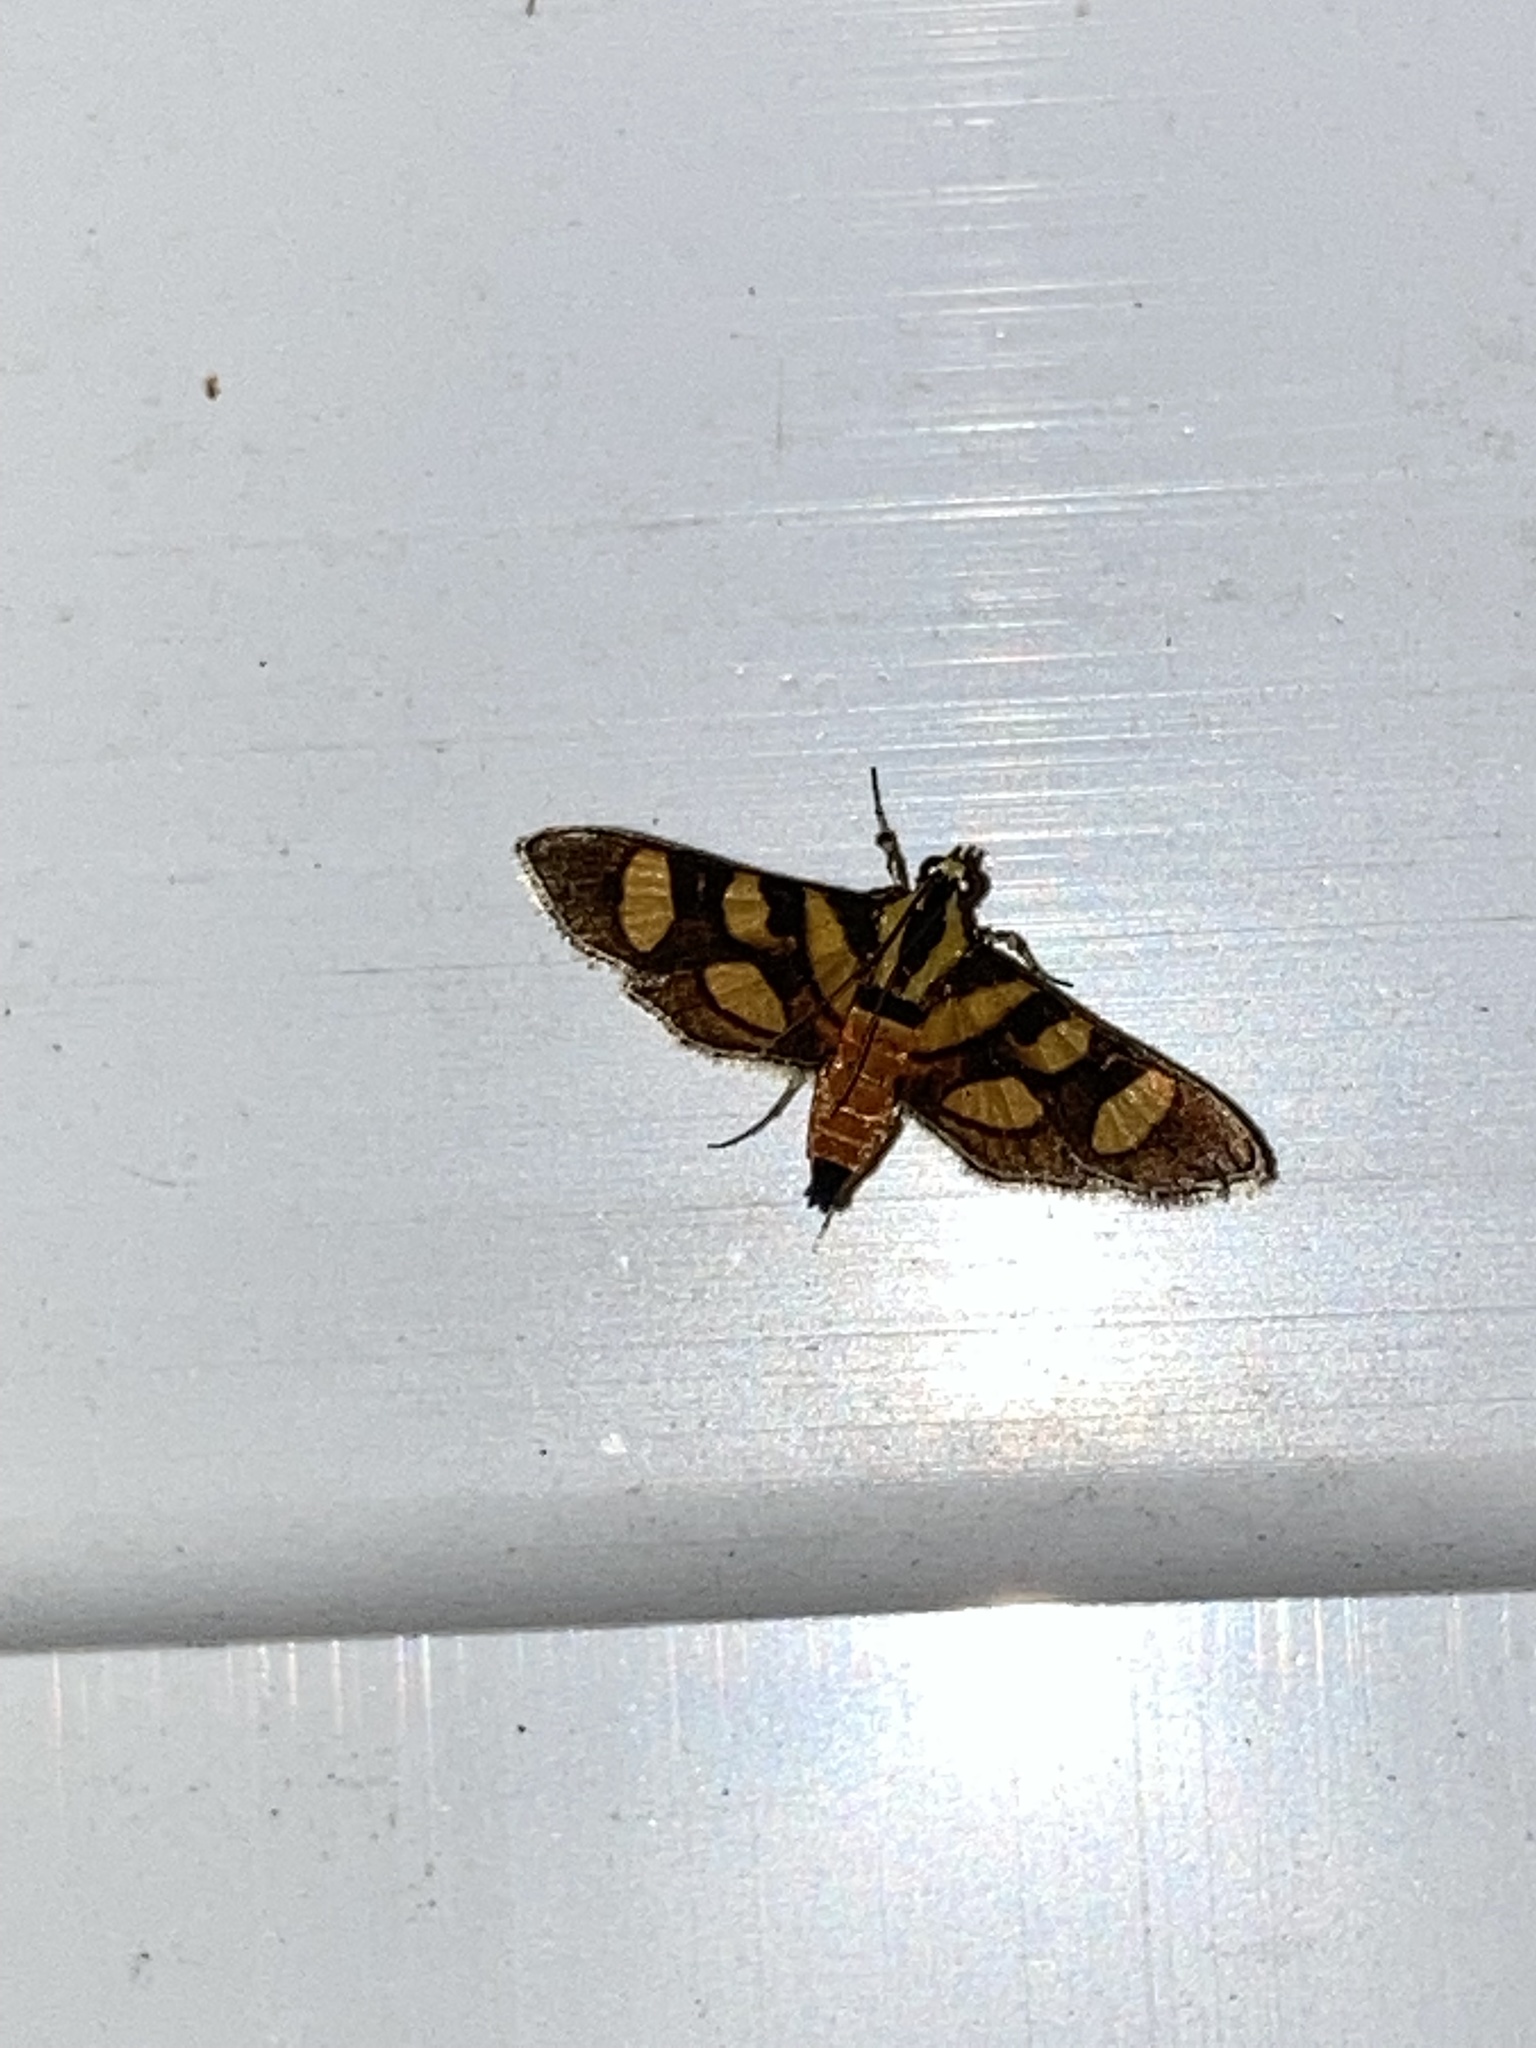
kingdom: Animalia
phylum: Arthropoda
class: Insecta
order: Lepidoptera
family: Crambidae
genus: Syngamia
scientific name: Syngamia florella
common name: Orange-spotted flower moth
